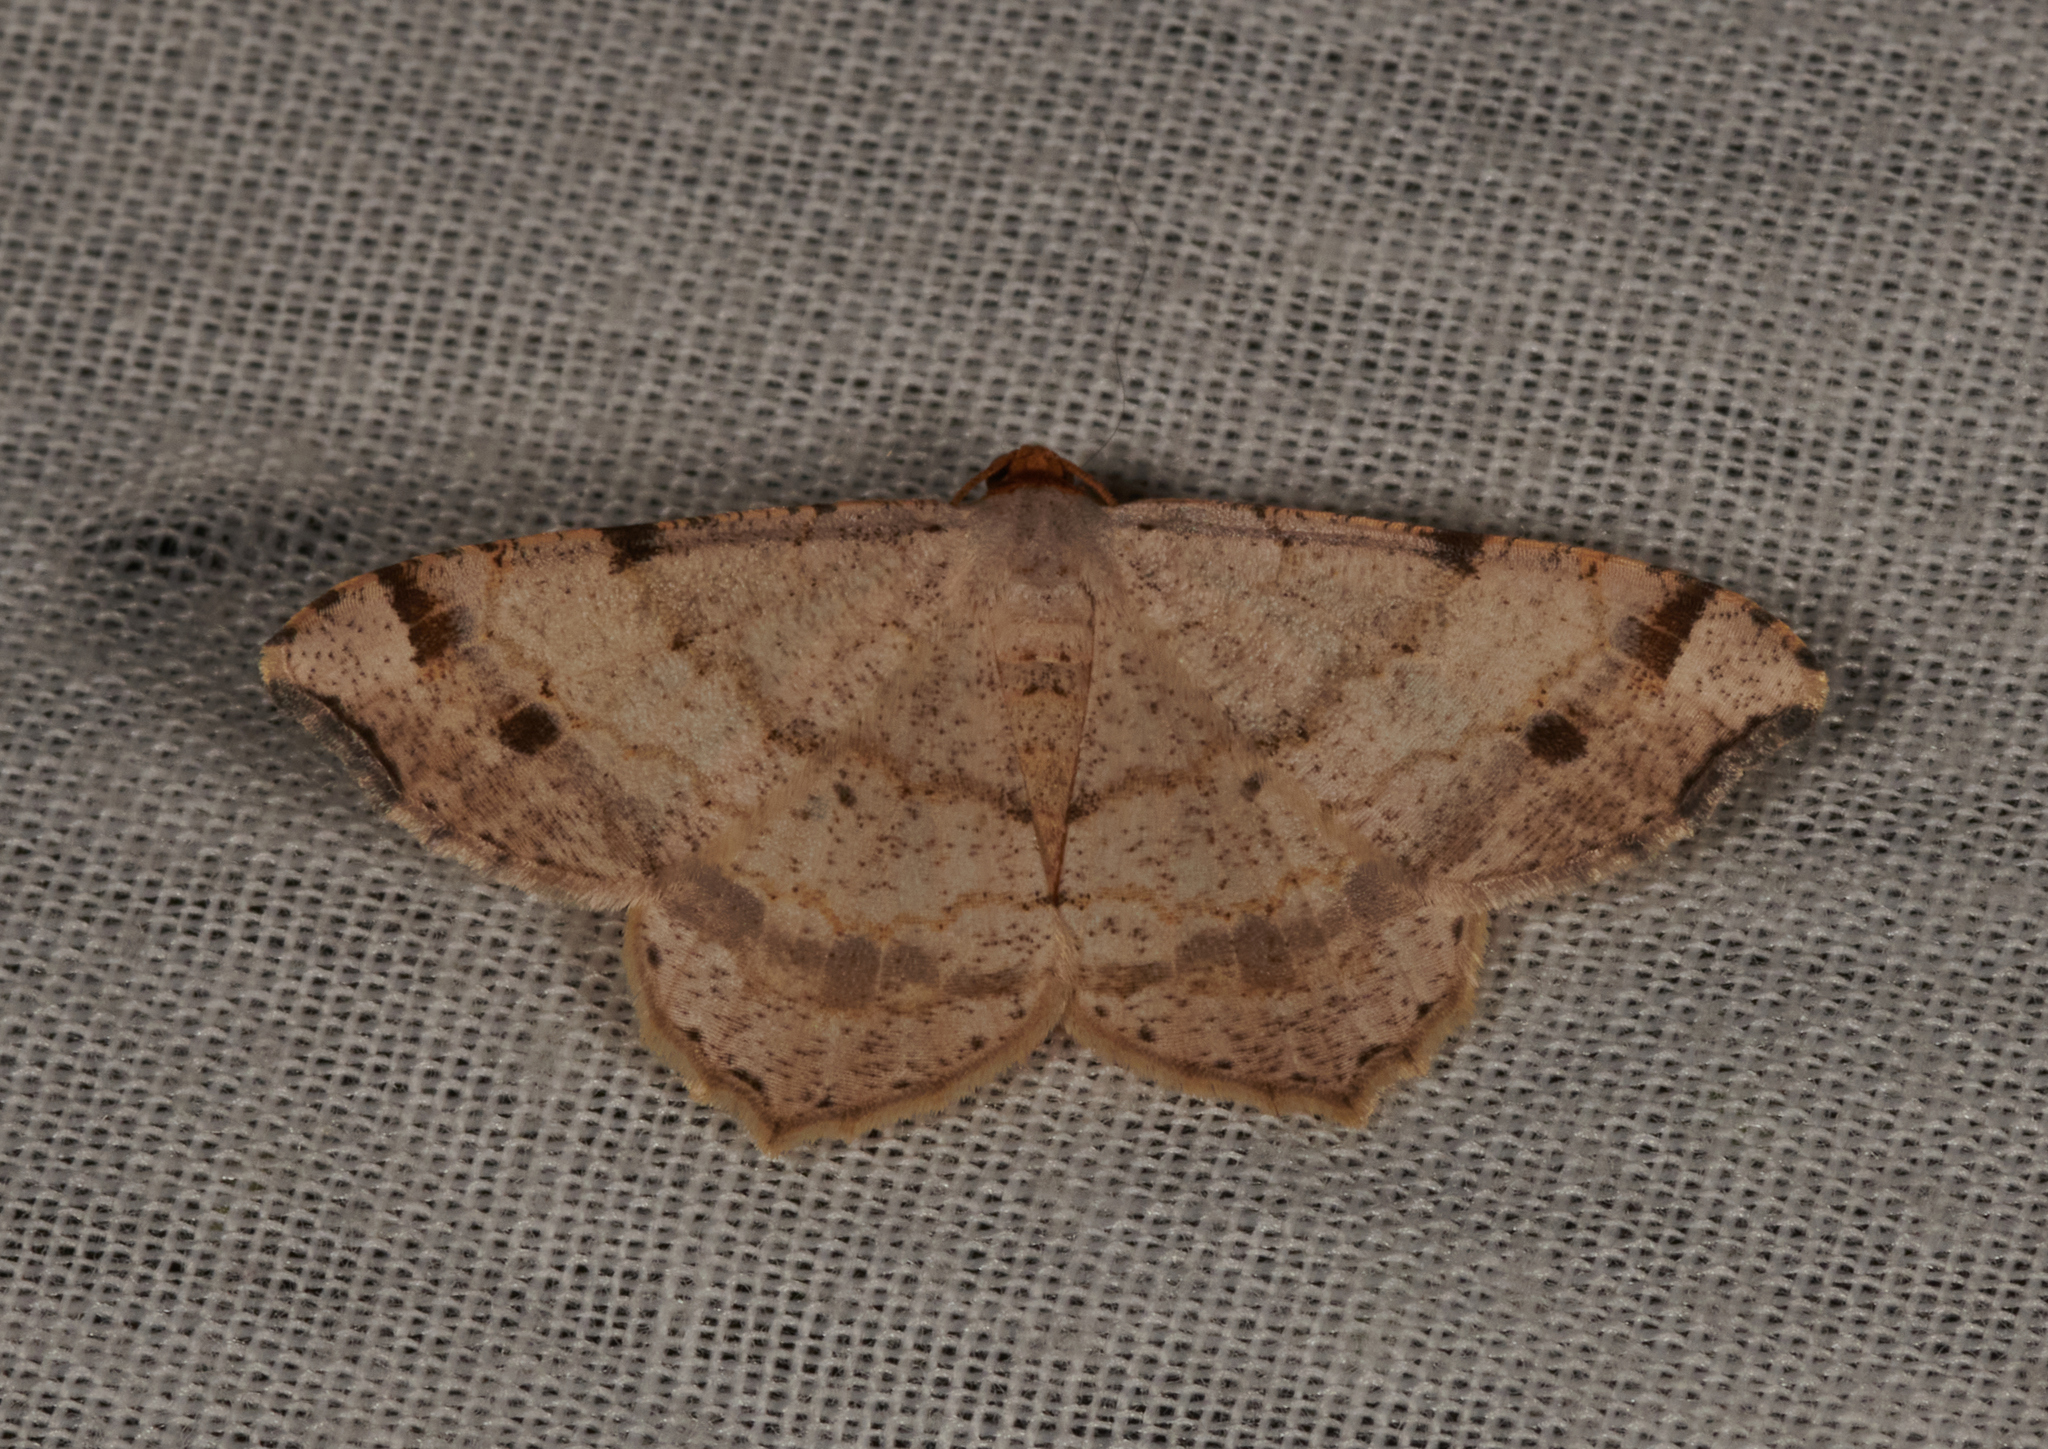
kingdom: Animalia
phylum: Arthropoda
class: Insecta
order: Lepidoptera
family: Geometridae
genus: Macaria
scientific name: Macaria bisignata
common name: Red-headed inchworm
